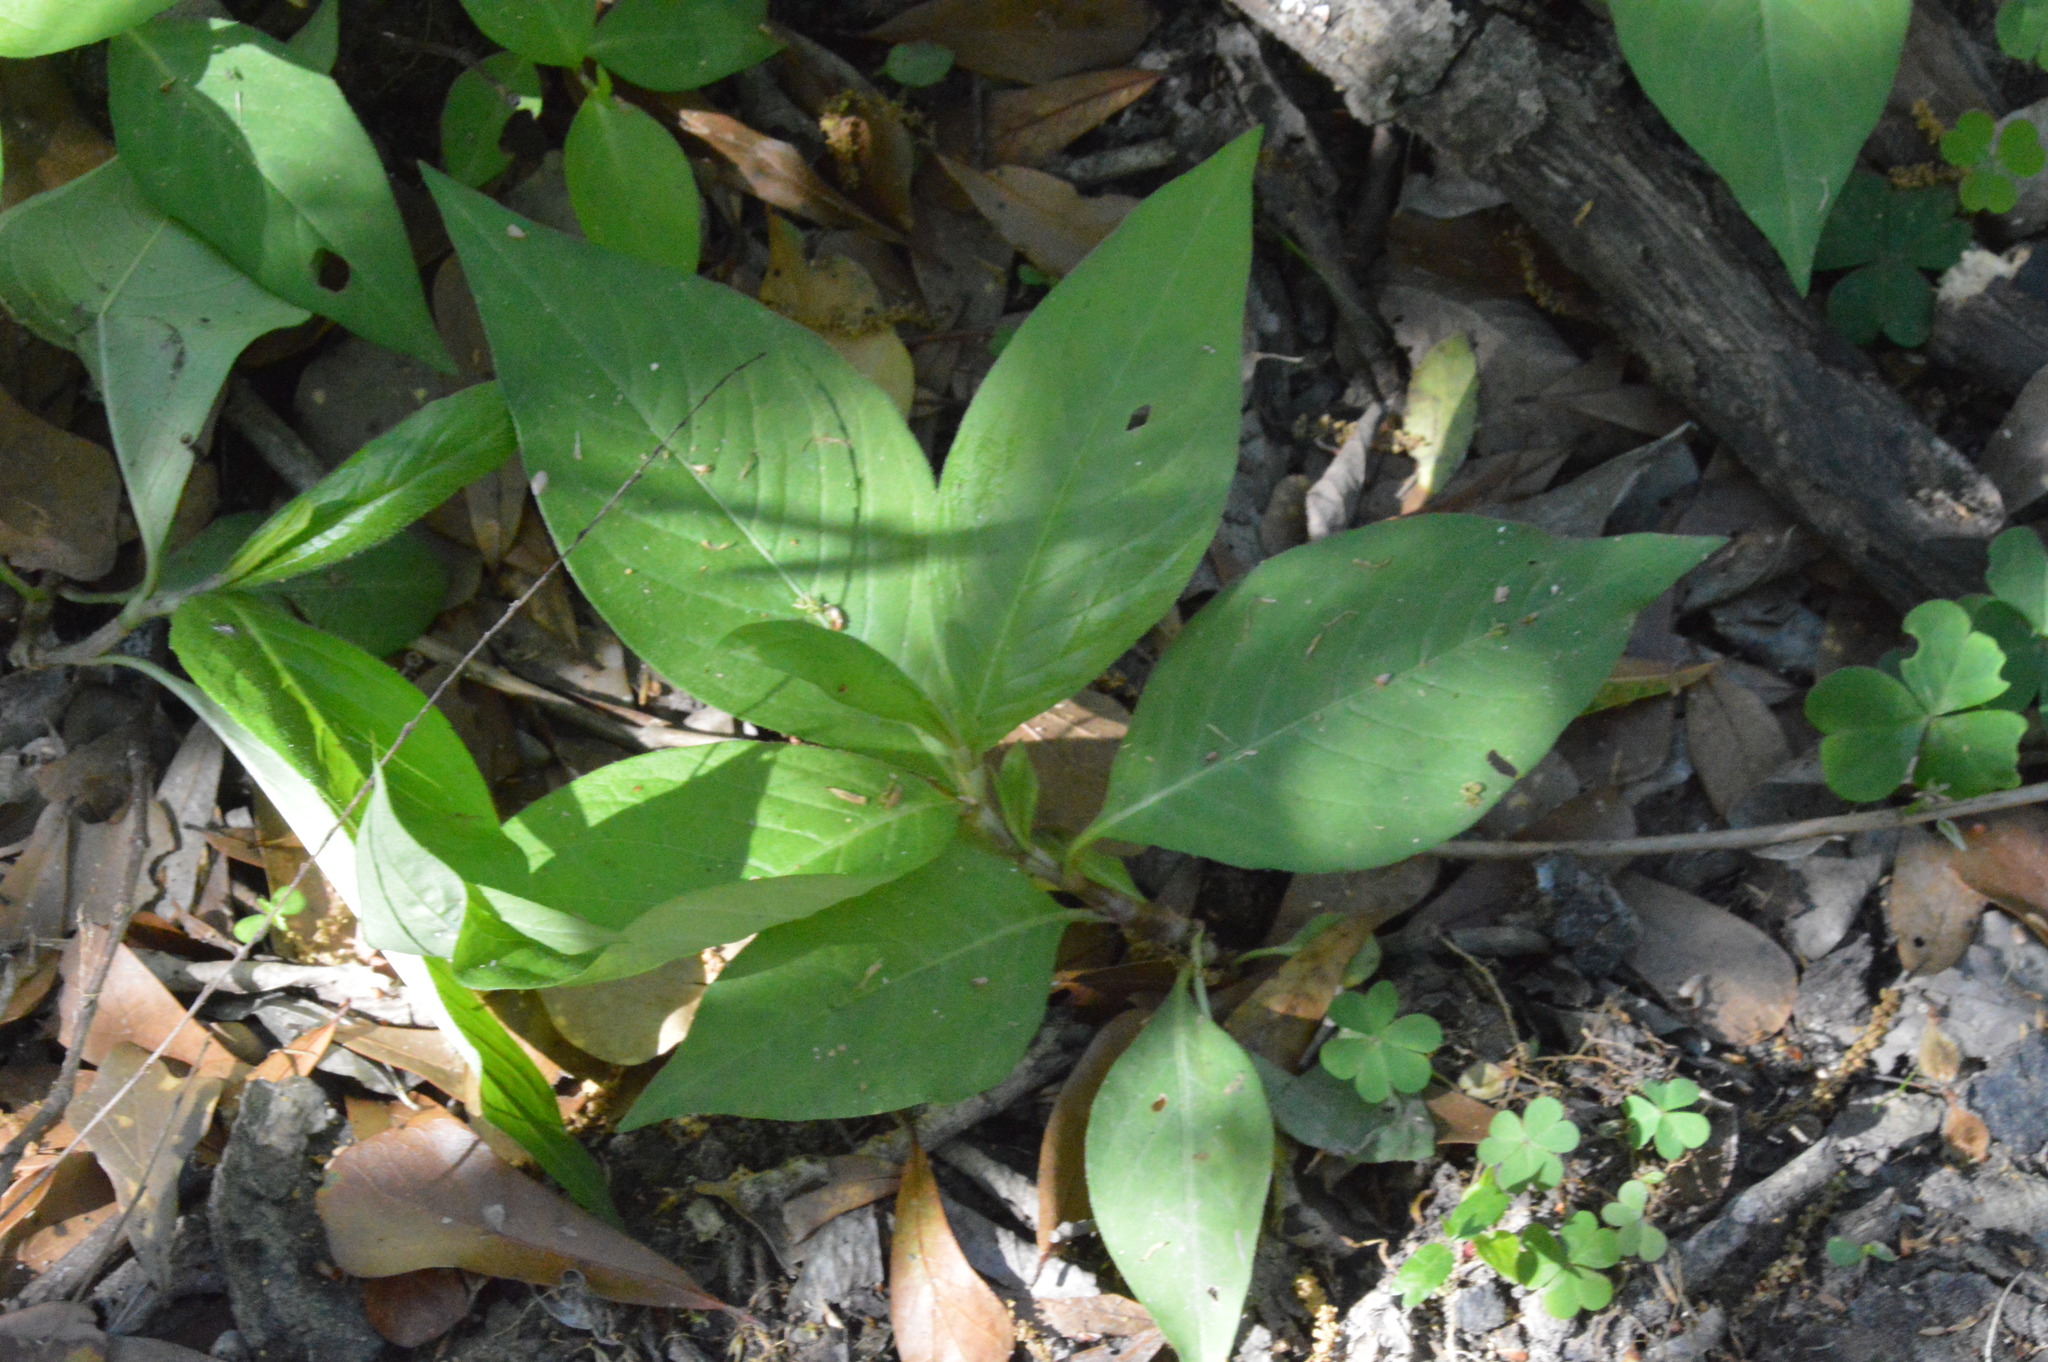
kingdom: Plantae
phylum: Tracheophyta
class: Magnoliopsida
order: Caryophyllales
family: Polygonaceae
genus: Persicaria
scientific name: Persicaria virginiana
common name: Jumpseed
